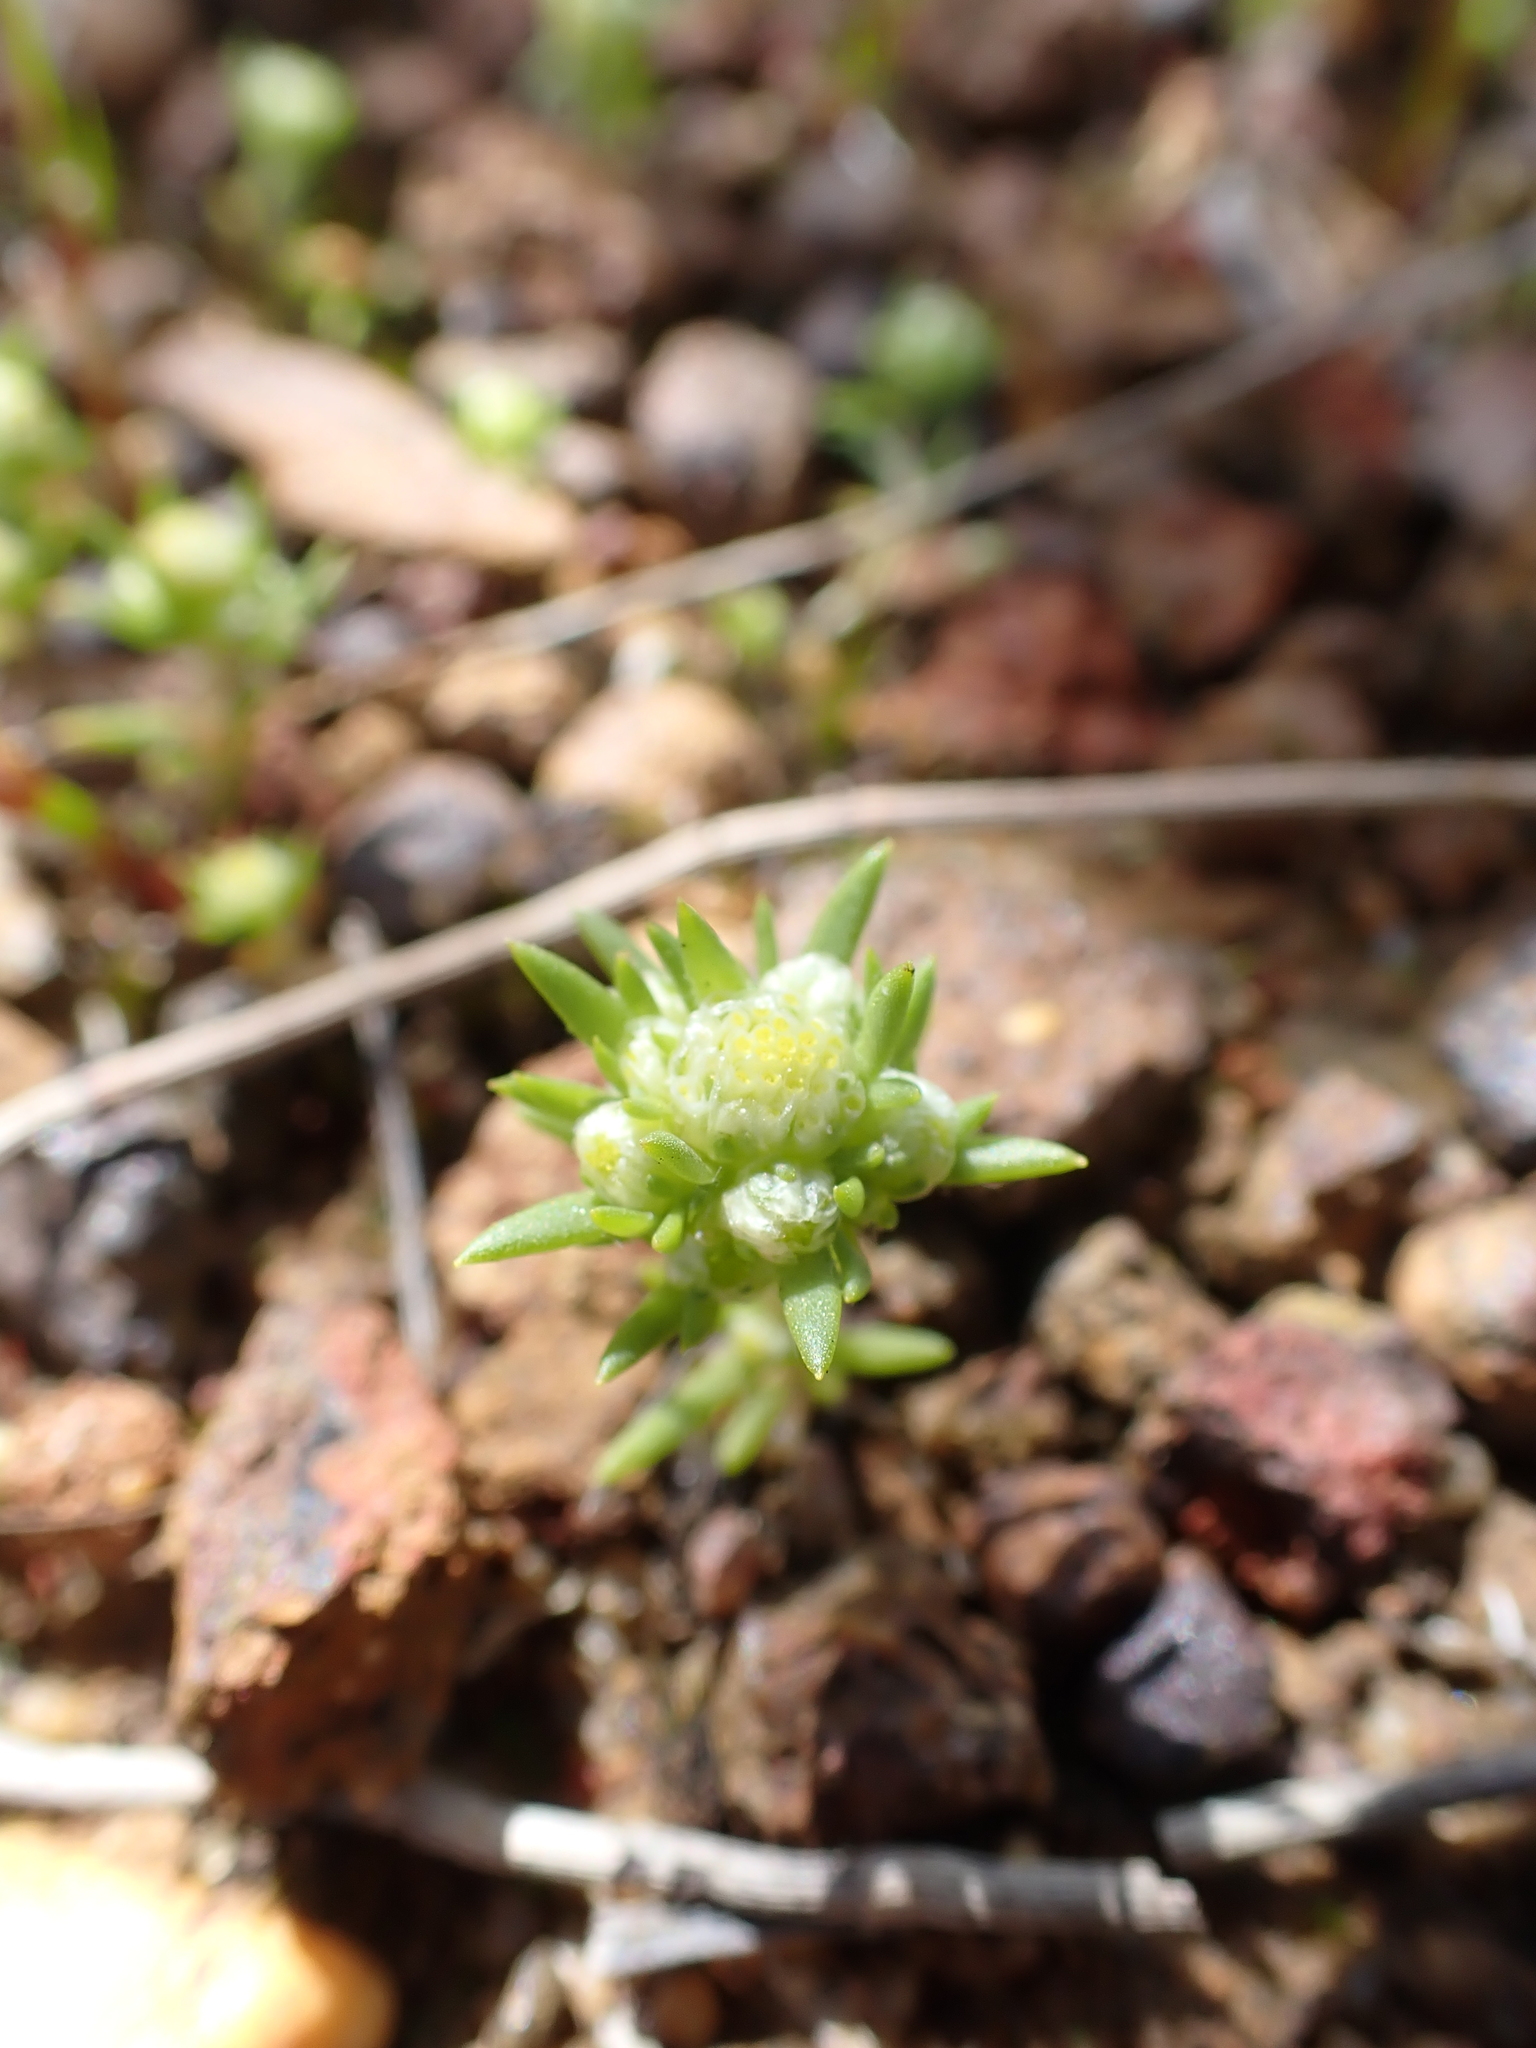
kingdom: Plantae
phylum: Tracheophyta
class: Magnoliopsida
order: Asterales
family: Asteraceae
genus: Siloxerus
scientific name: Siloxerus multiflorus
